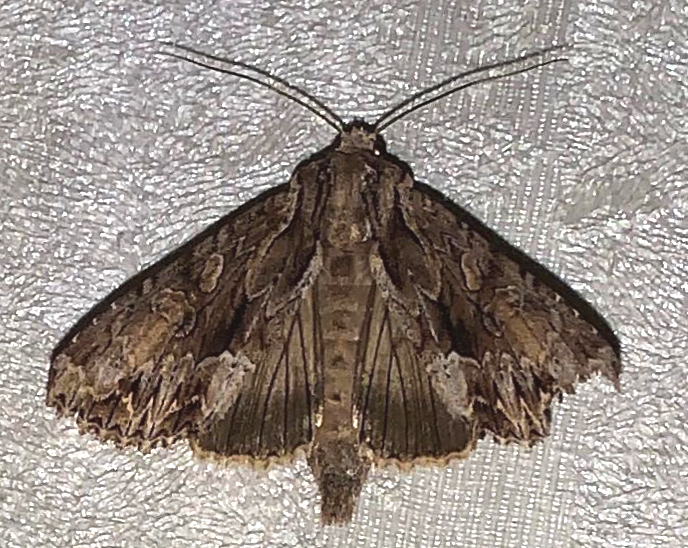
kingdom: Animalia
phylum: Arthropoda
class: Insecta
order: Lepidoptera
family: Noctuidae
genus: Apamea
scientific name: Apamea monoglypha
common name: Dark arches
